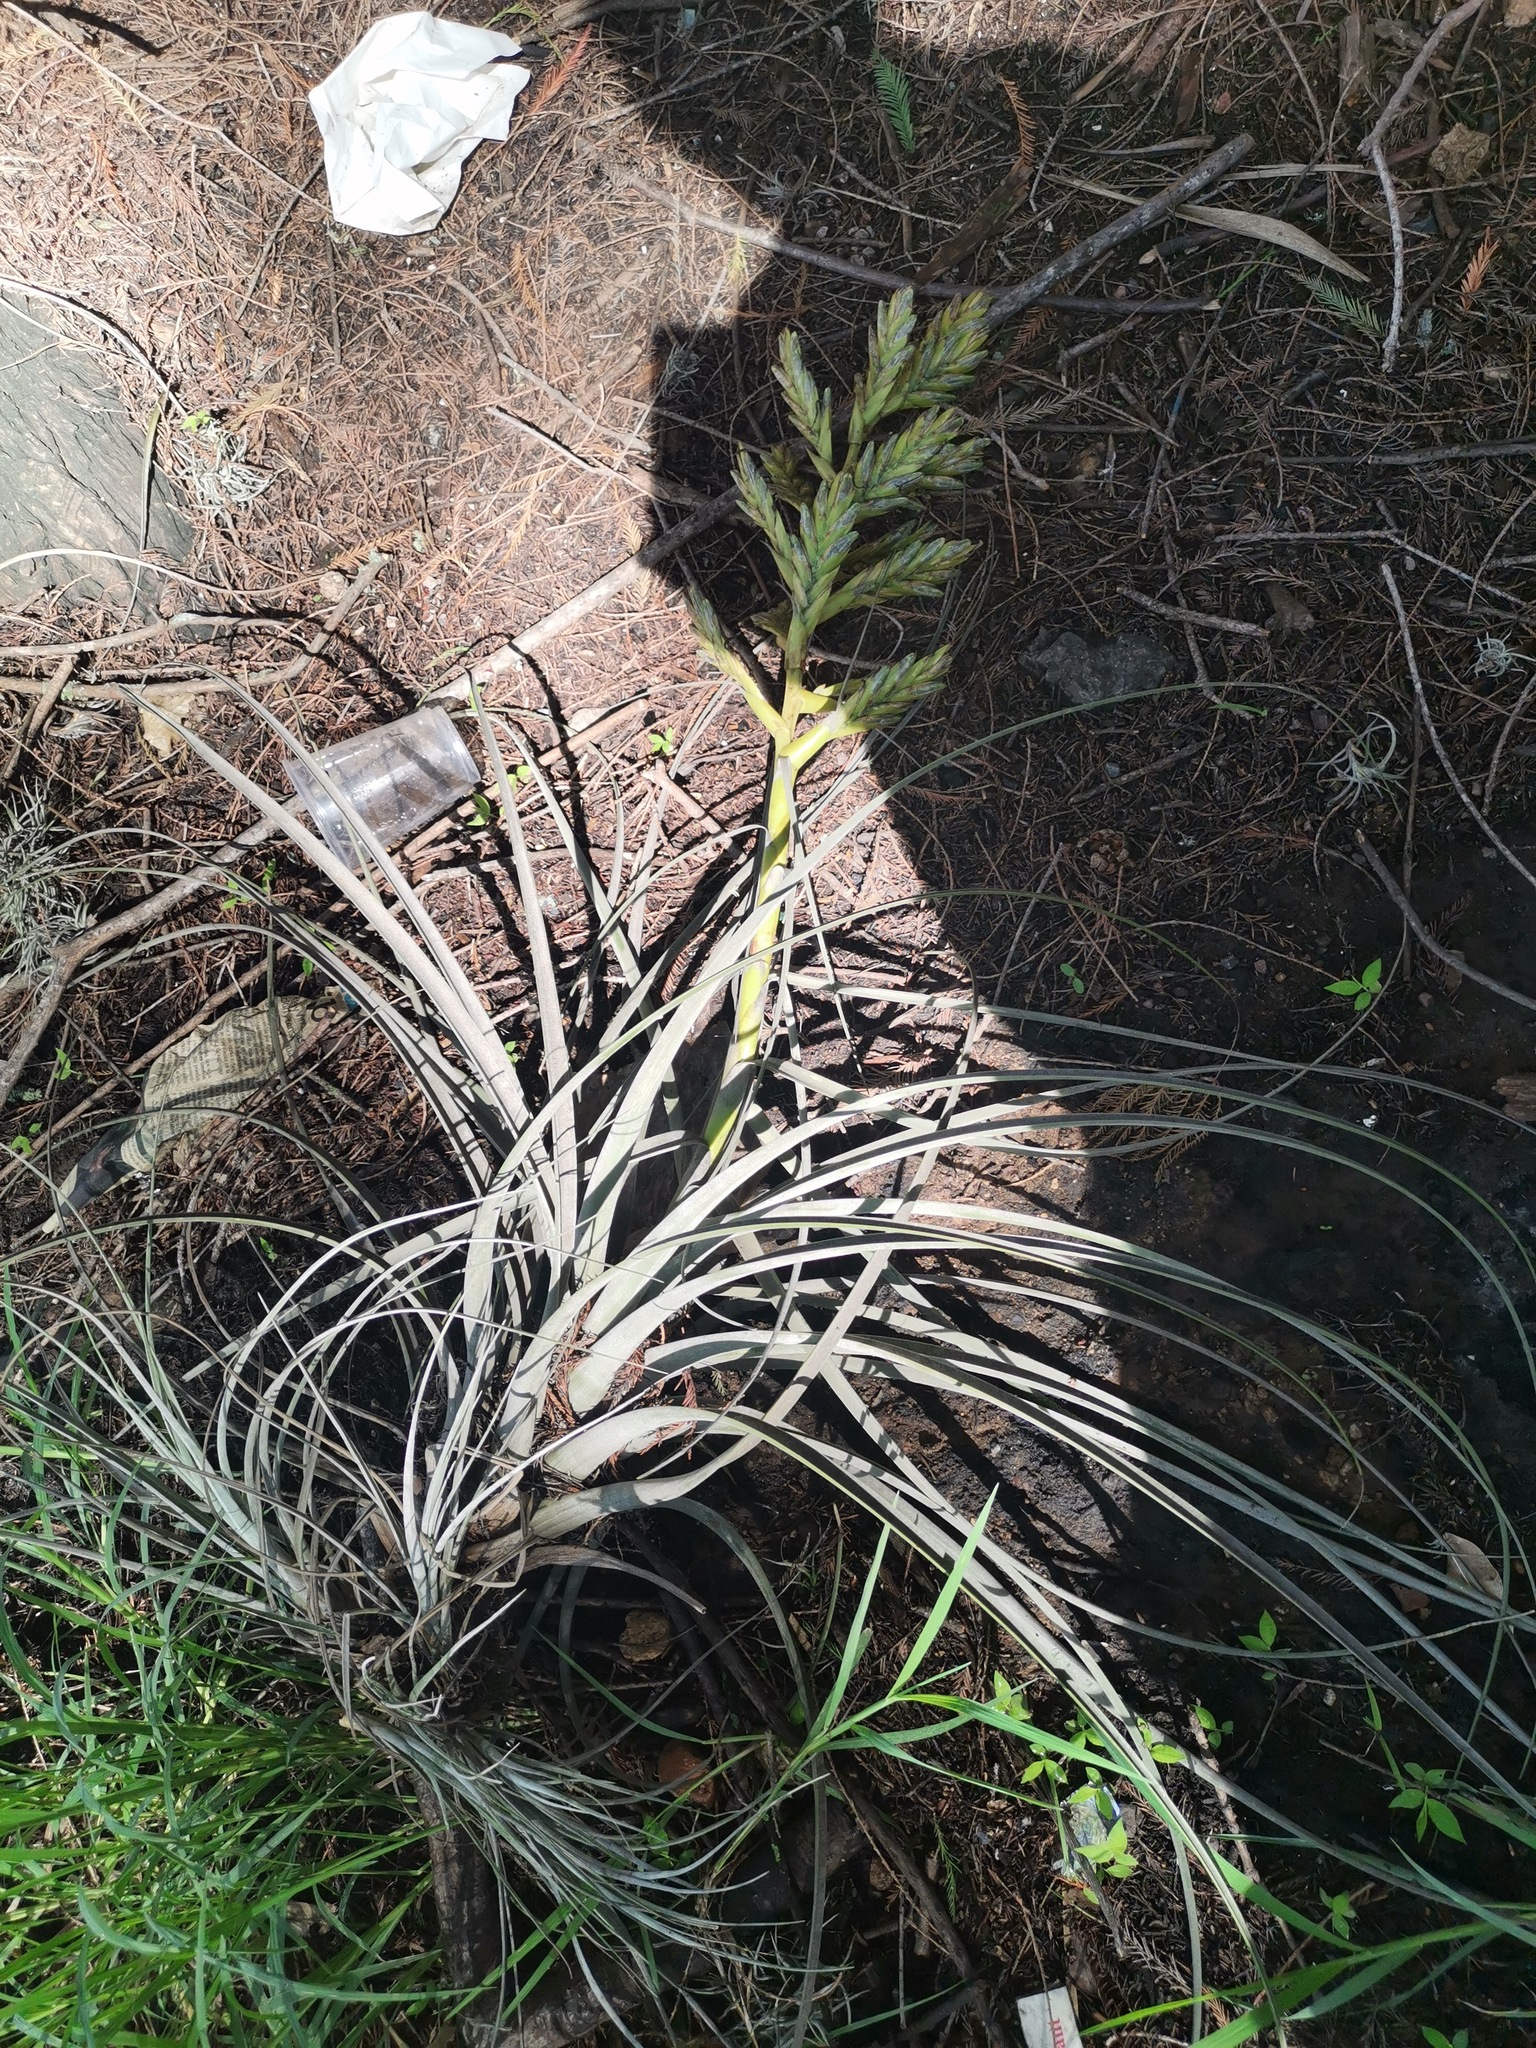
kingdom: Plantae
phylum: Tracheophyta
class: Liliopsida
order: Poales
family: Bromeliaceae
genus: Tillandsia
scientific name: Tillandsia dugesii
